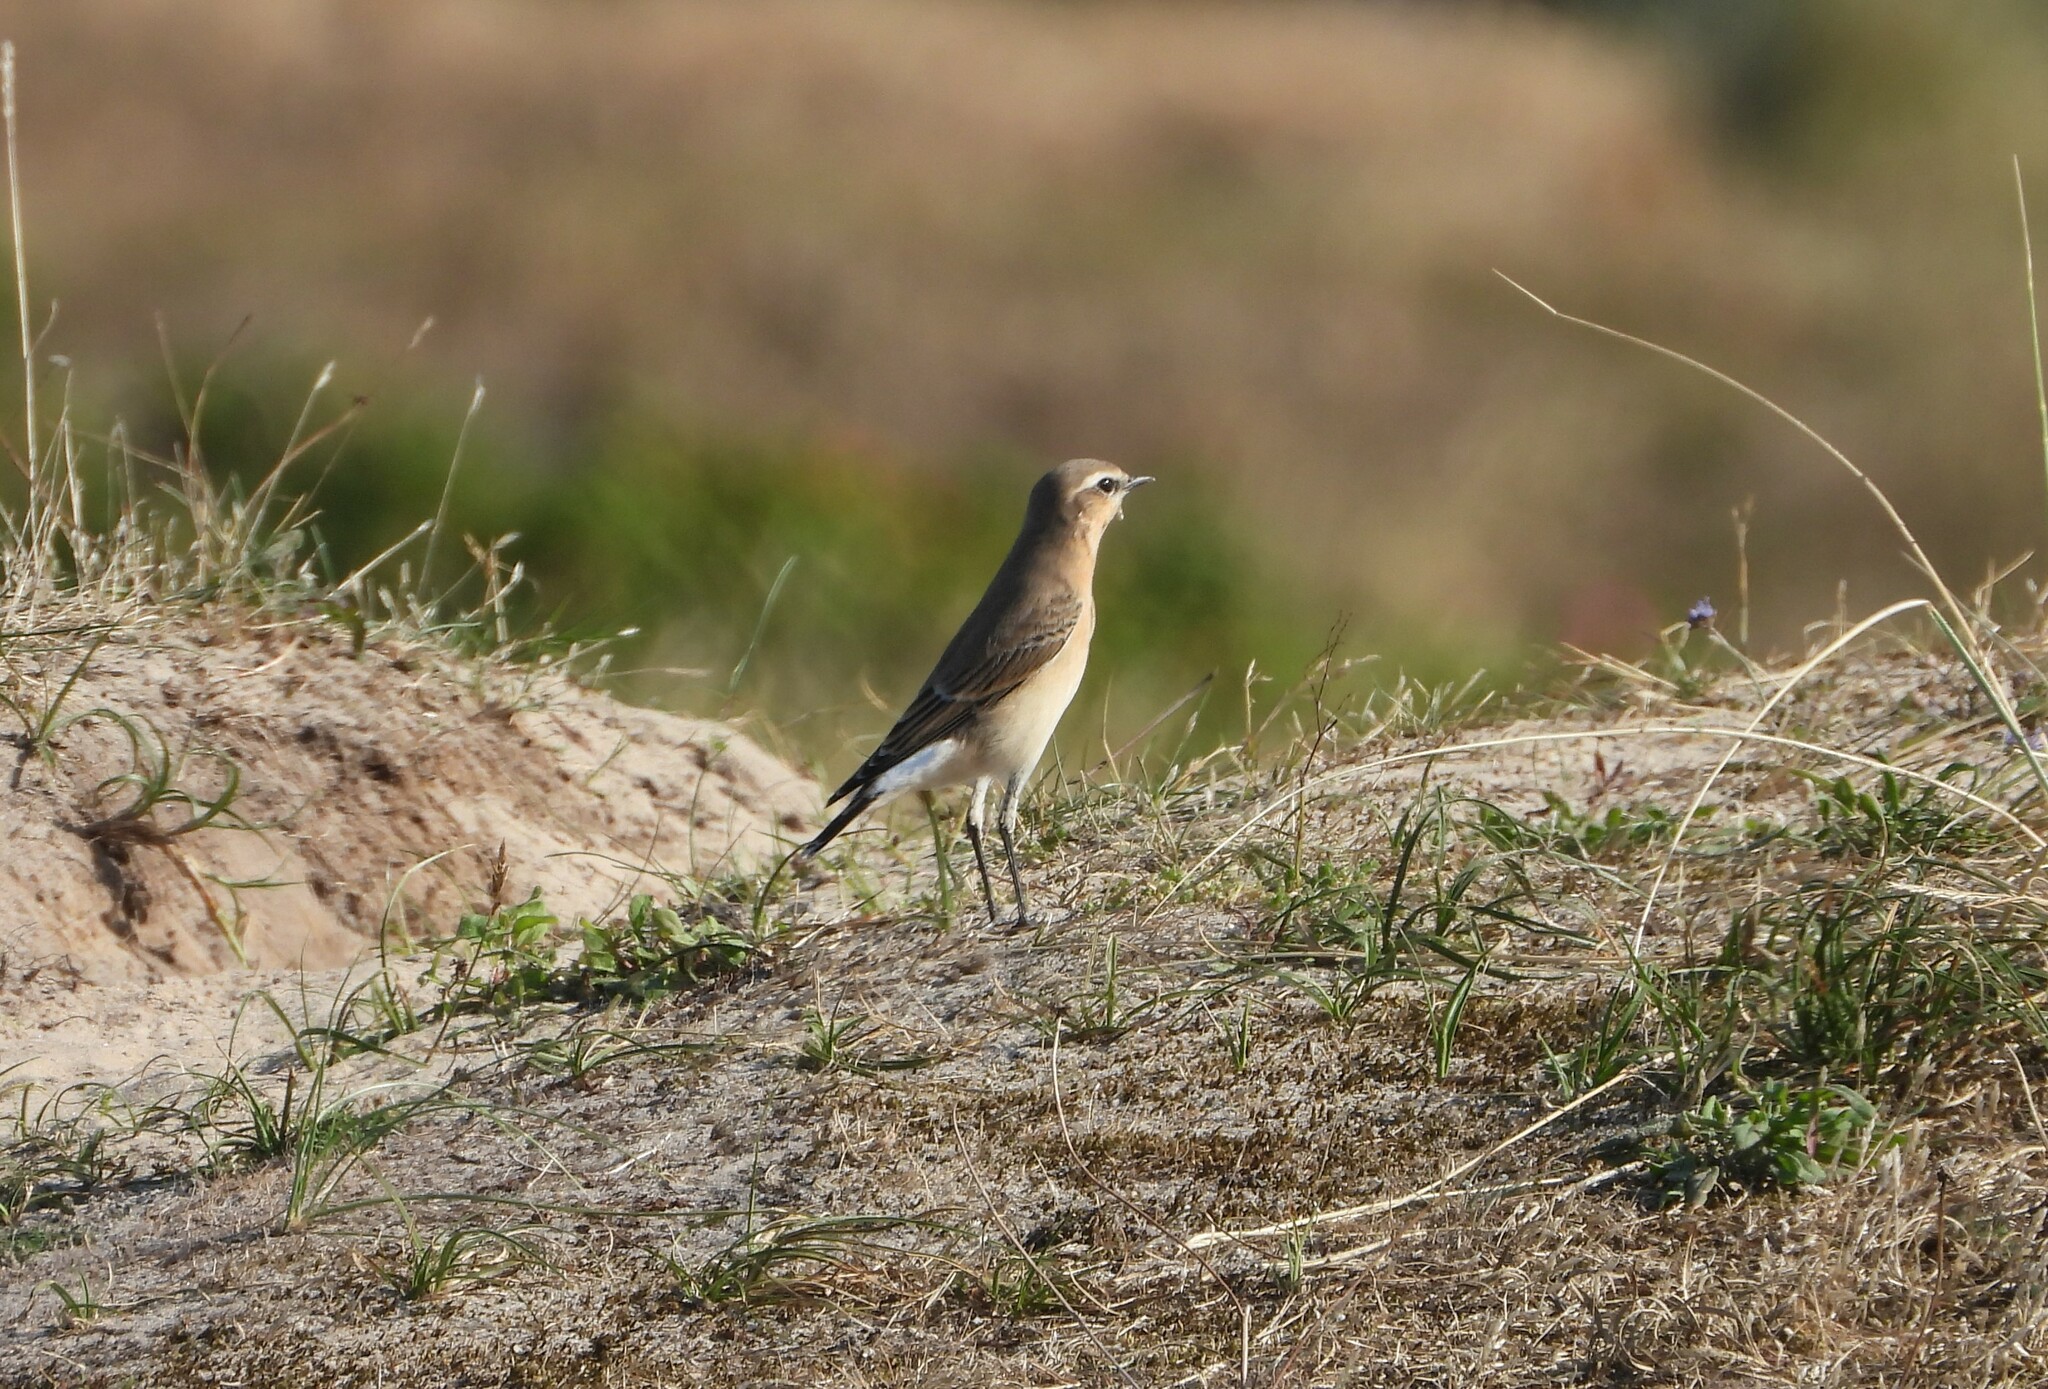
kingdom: Animalia
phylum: Chordata
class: Aves
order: Passeriformes
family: Muscicapidae
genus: Oenanthe
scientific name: Oenanthe oenanthe
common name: Northern wheatear
